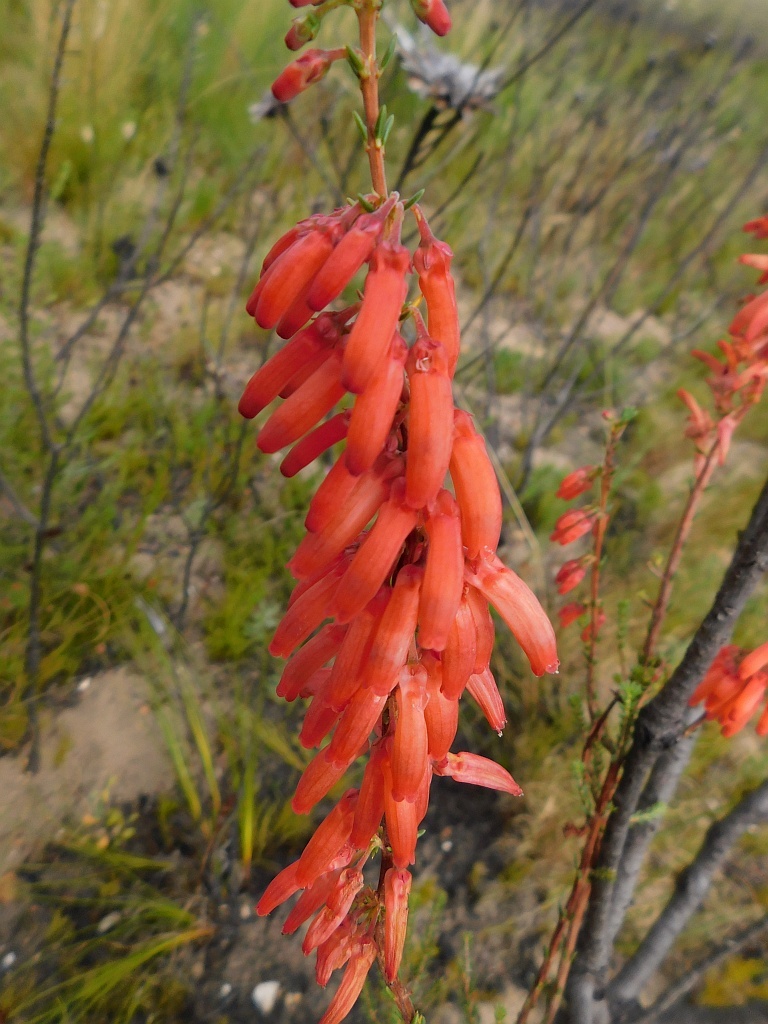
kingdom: Plantae
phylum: Tracheophyta
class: Magnoliopsida
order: Ericales
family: Ericaceae
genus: Erica
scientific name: Erica mammosa
